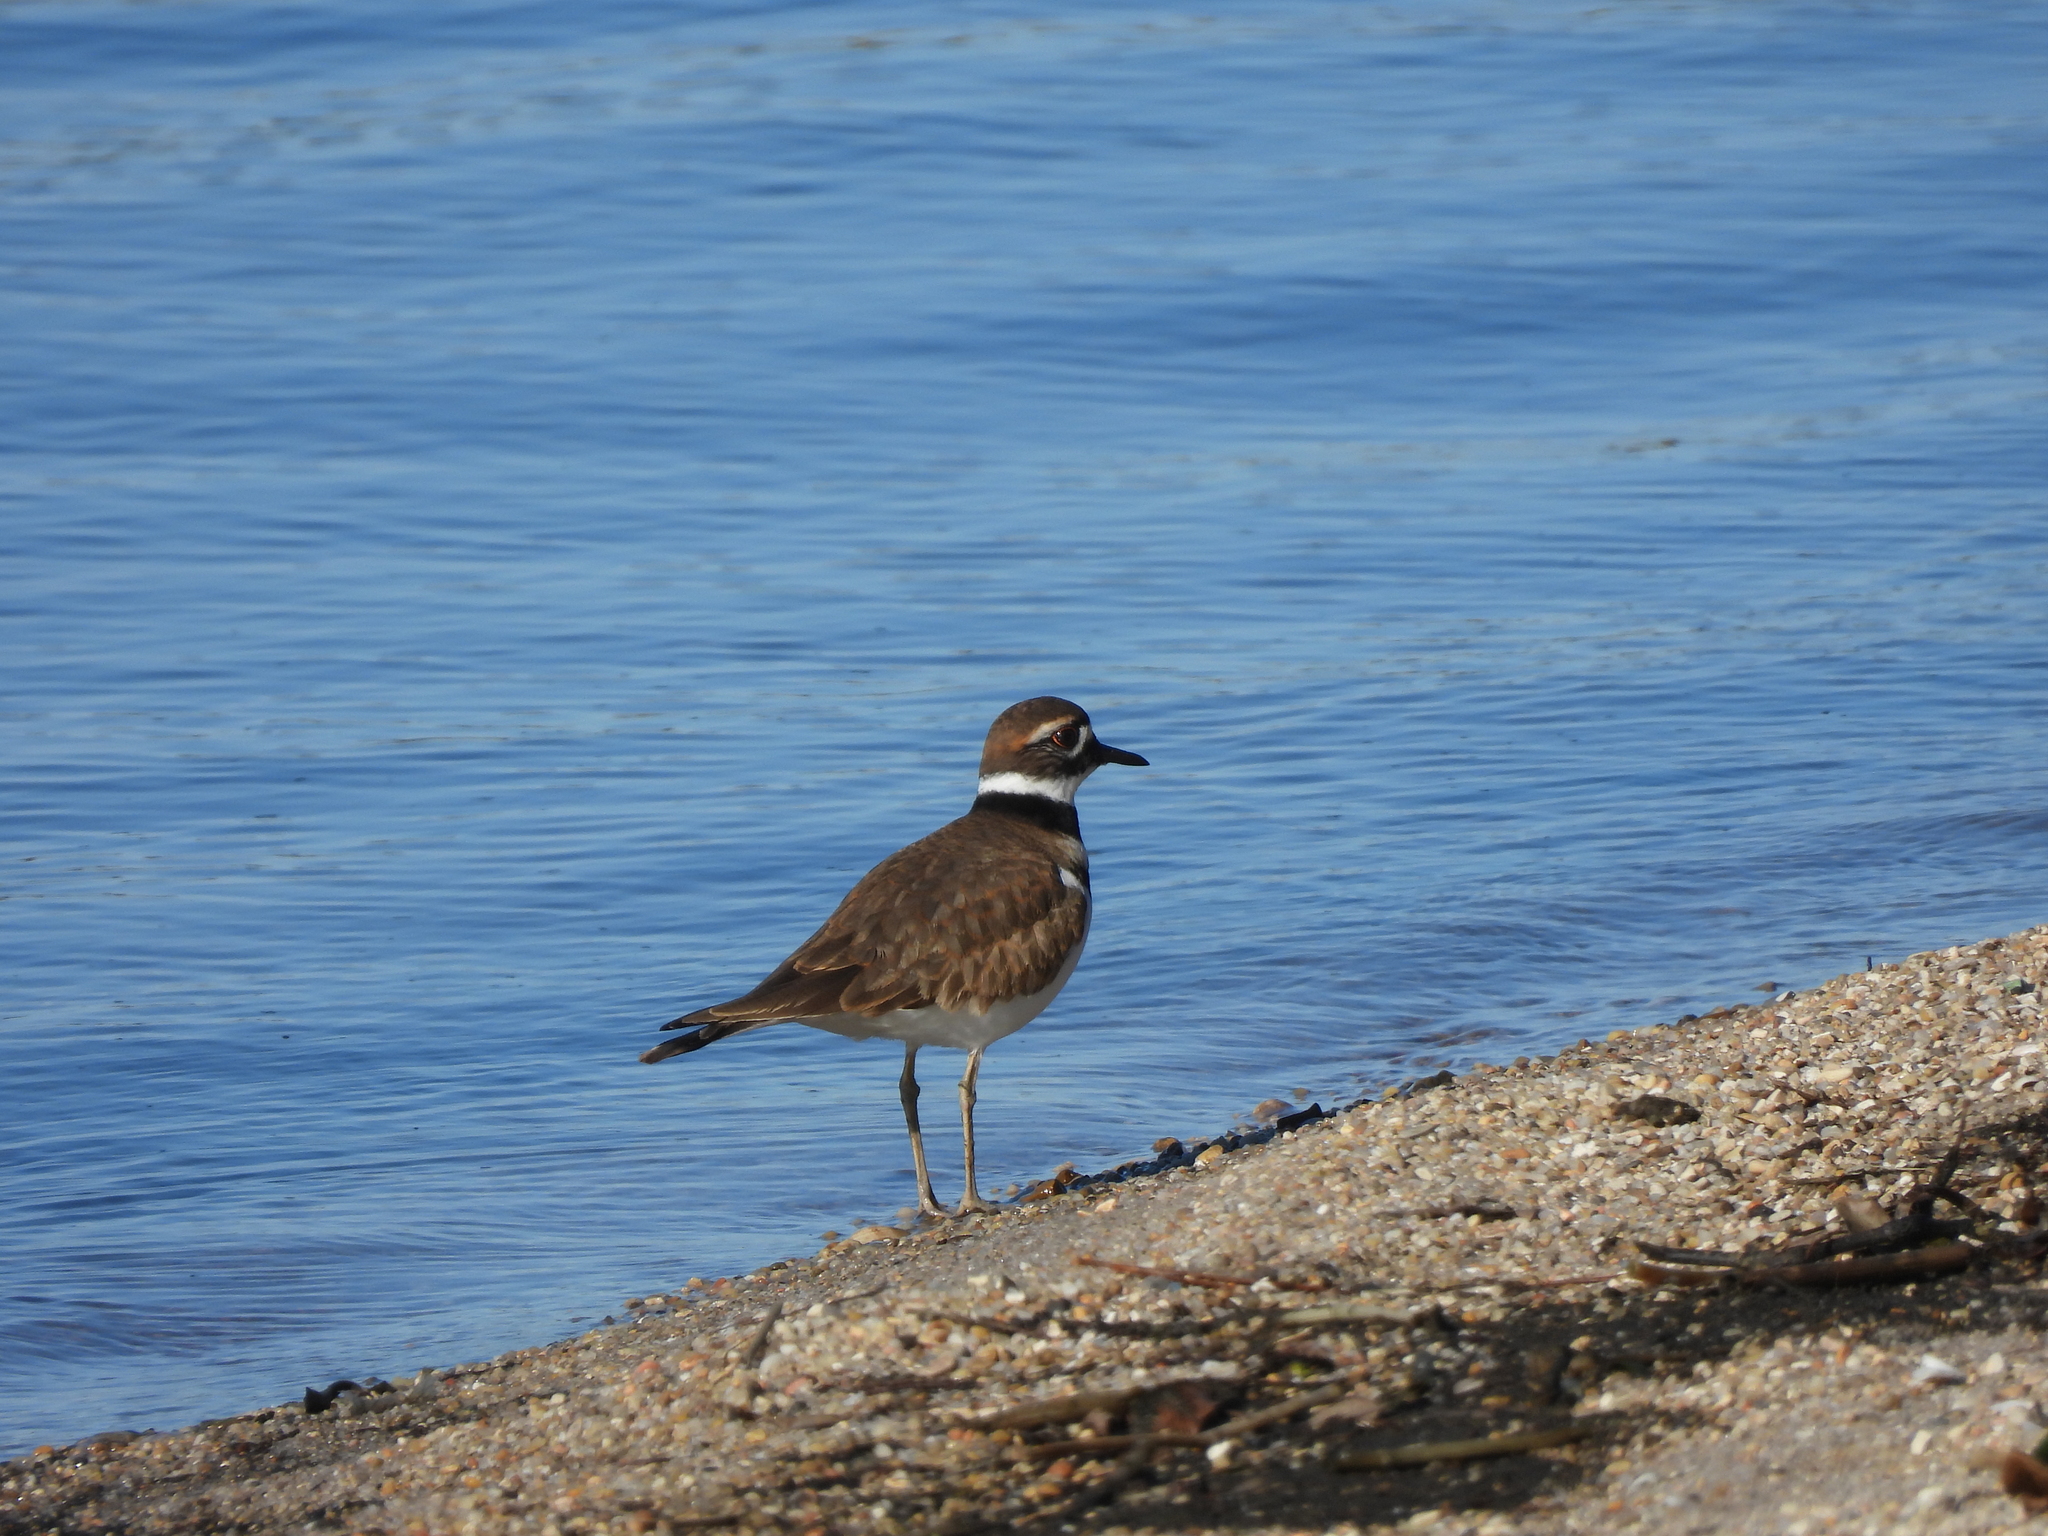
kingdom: Animalia
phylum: Chordata
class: Aves
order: Charadriiformes
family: Charadriidae
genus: Charadrius
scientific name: Charadrius vociferus
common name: Killdeer
